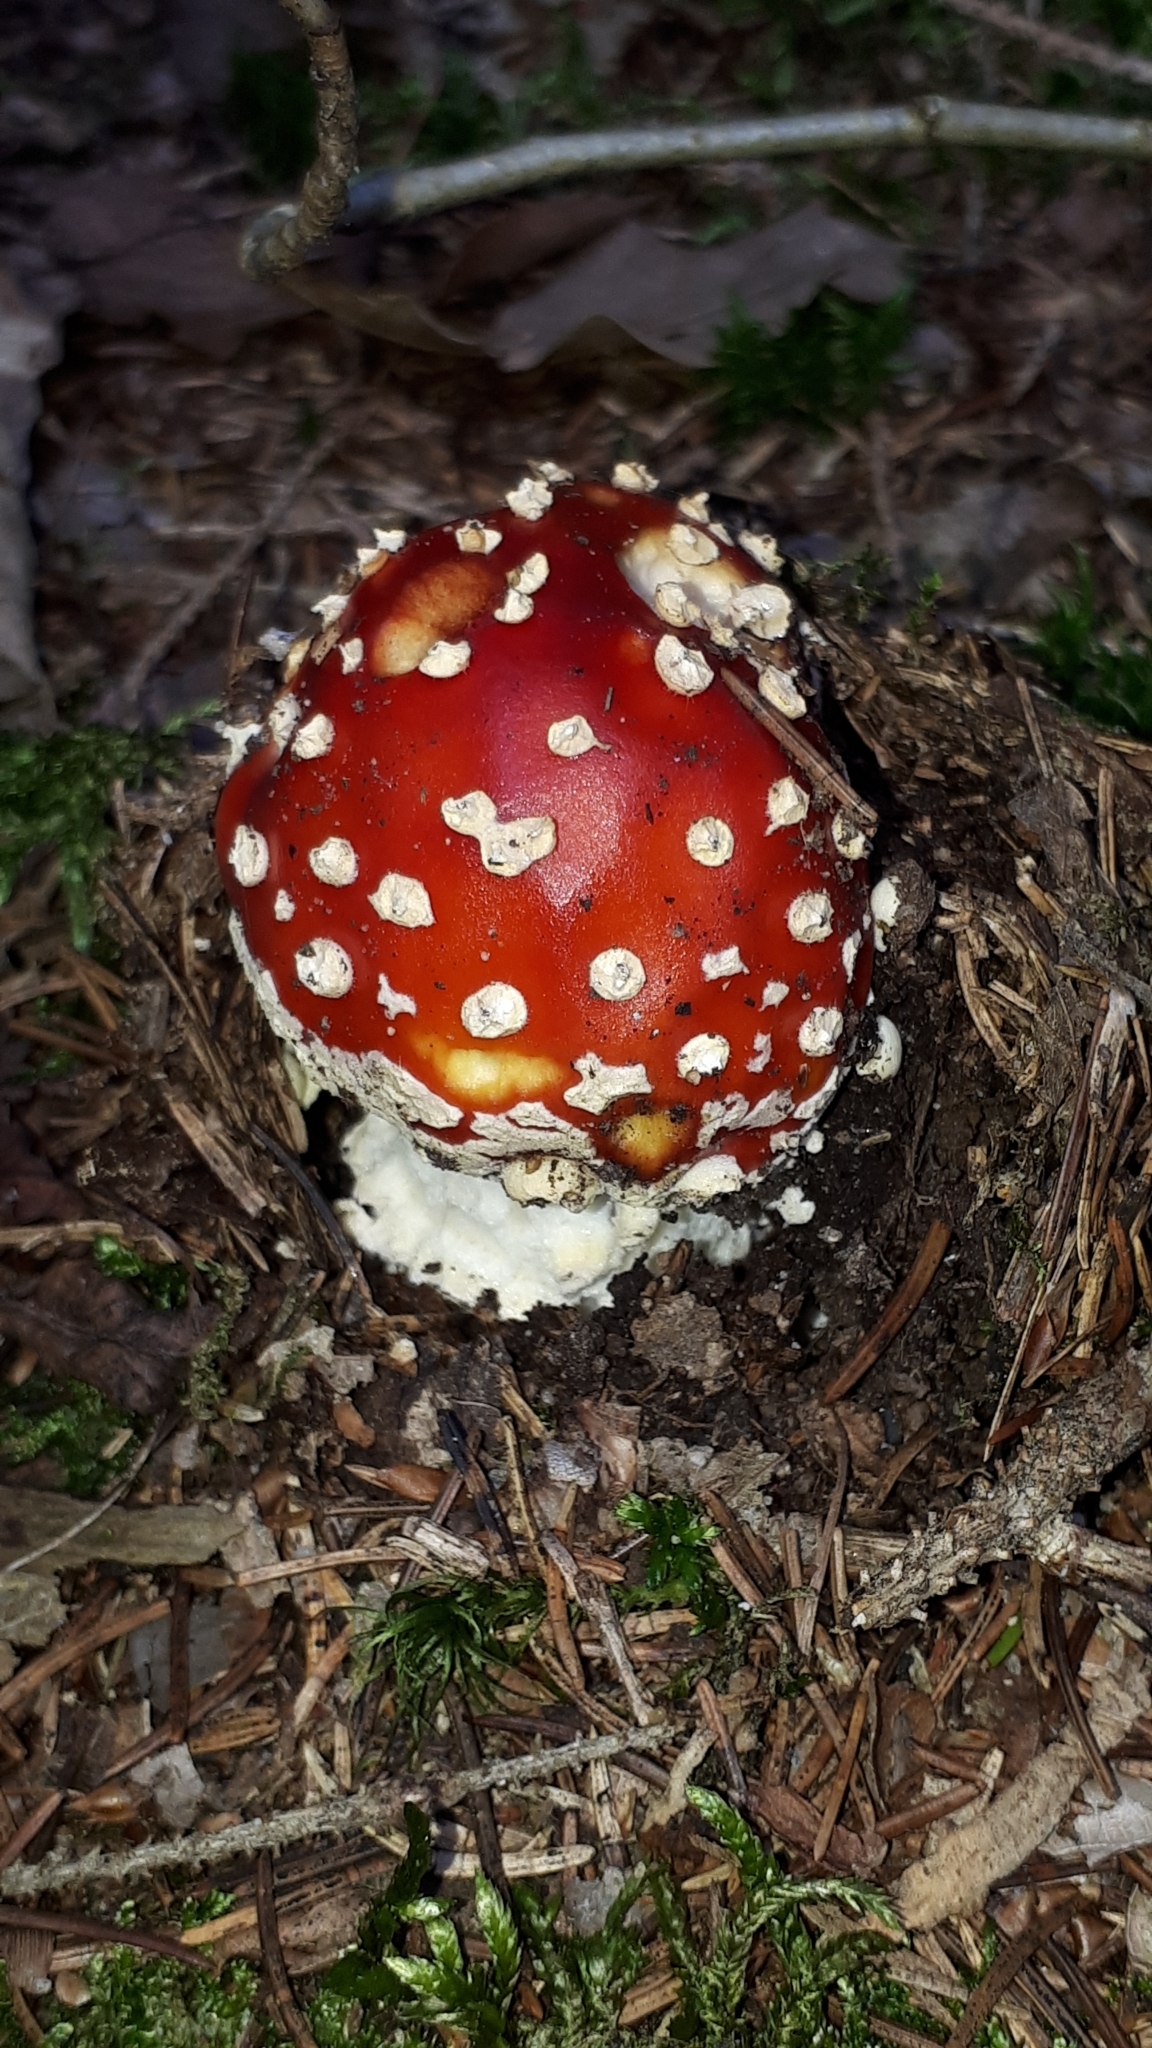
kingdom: Fungi
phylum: Basidiomycota
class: Agaricomycetes
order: Agaricales
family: Amanitaceae
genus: Amanita
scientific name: Amanita muscaria
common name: Fly agaric
